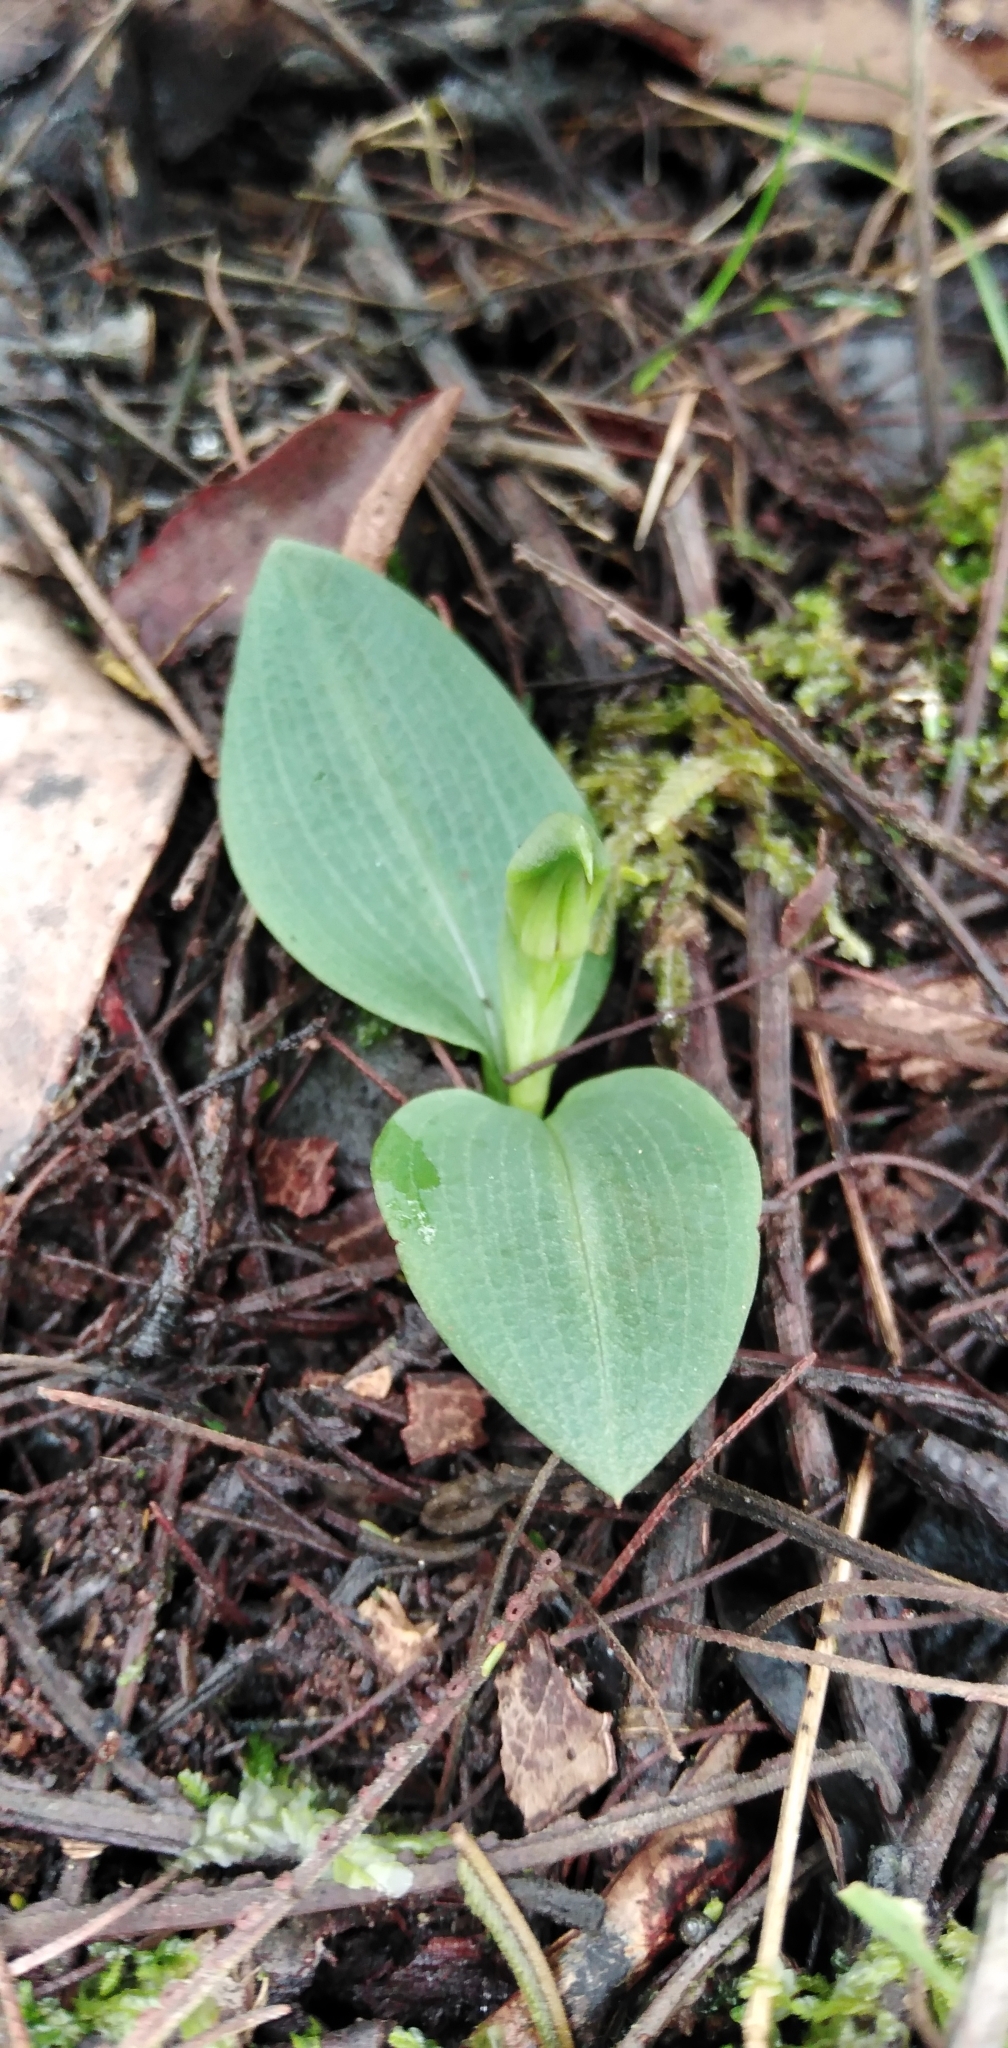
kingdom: Plantae
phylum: Tracheophyta
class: Liliopsida
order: Asparagales
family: Orchidaceae
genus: Chiloglottis
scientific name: Chiloglottis cornuta
